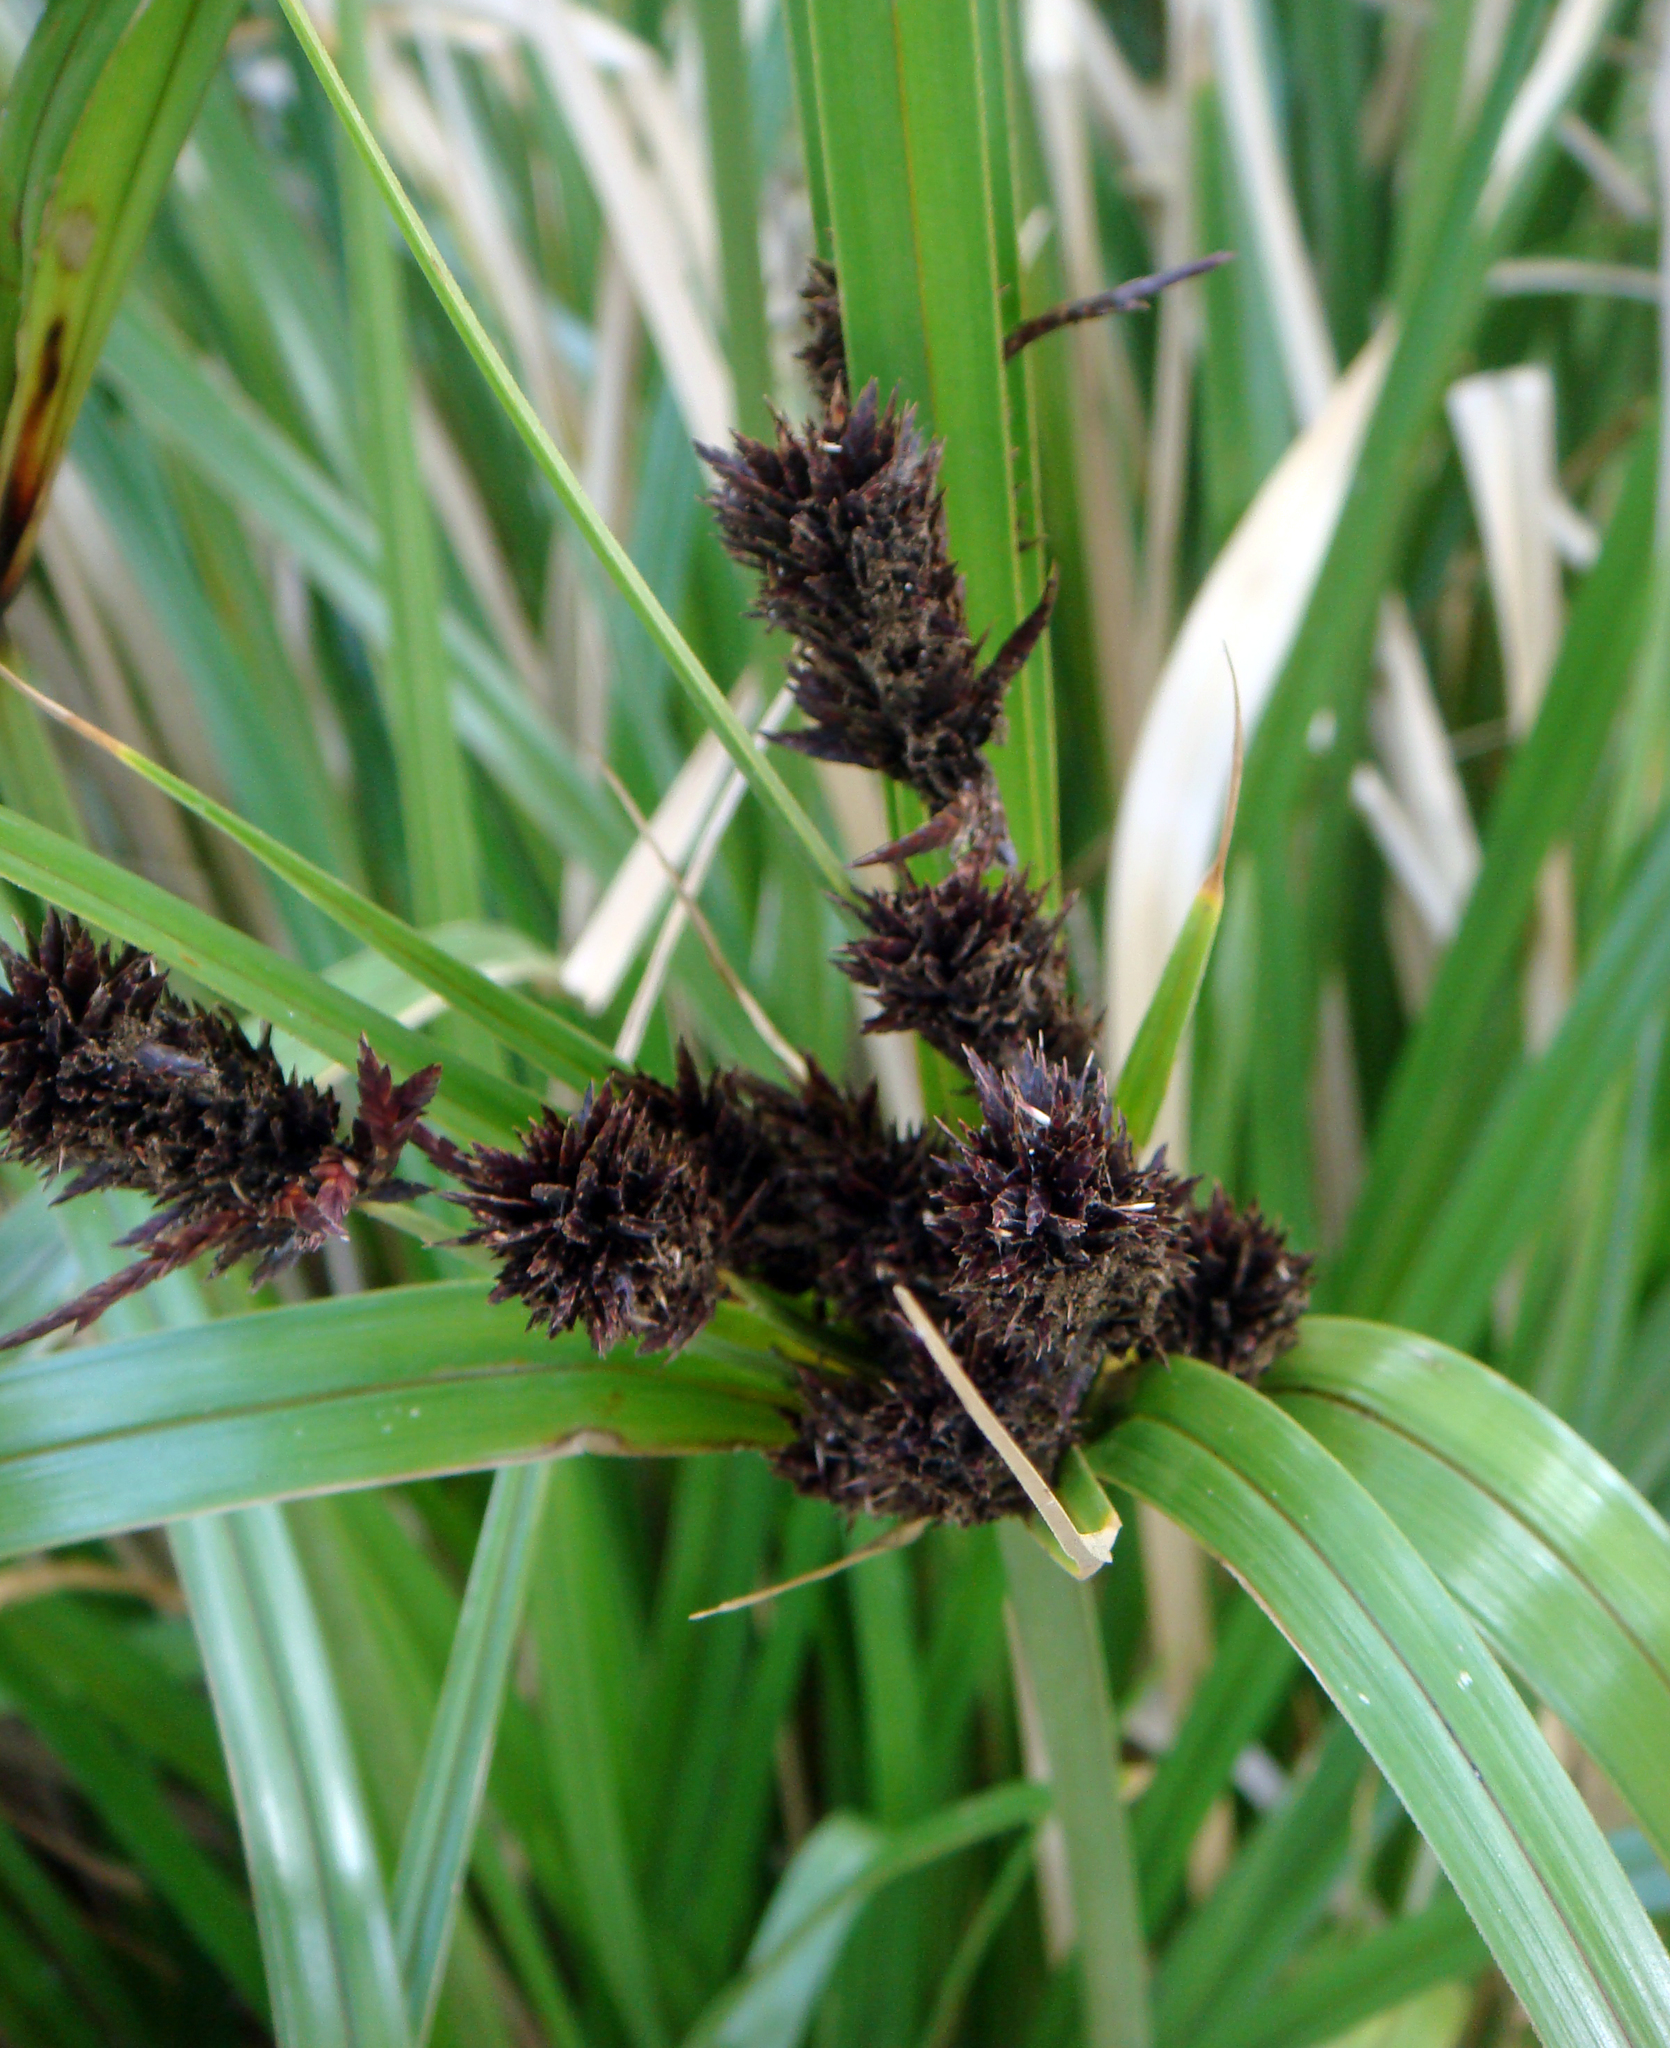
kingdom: Plantae
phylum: Tracheophyta
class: Liliopsida
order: Poales
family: Cyperaceae
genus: Cyperus
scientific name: Cyperus ustulatus
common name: Giant umbrella-sedge
